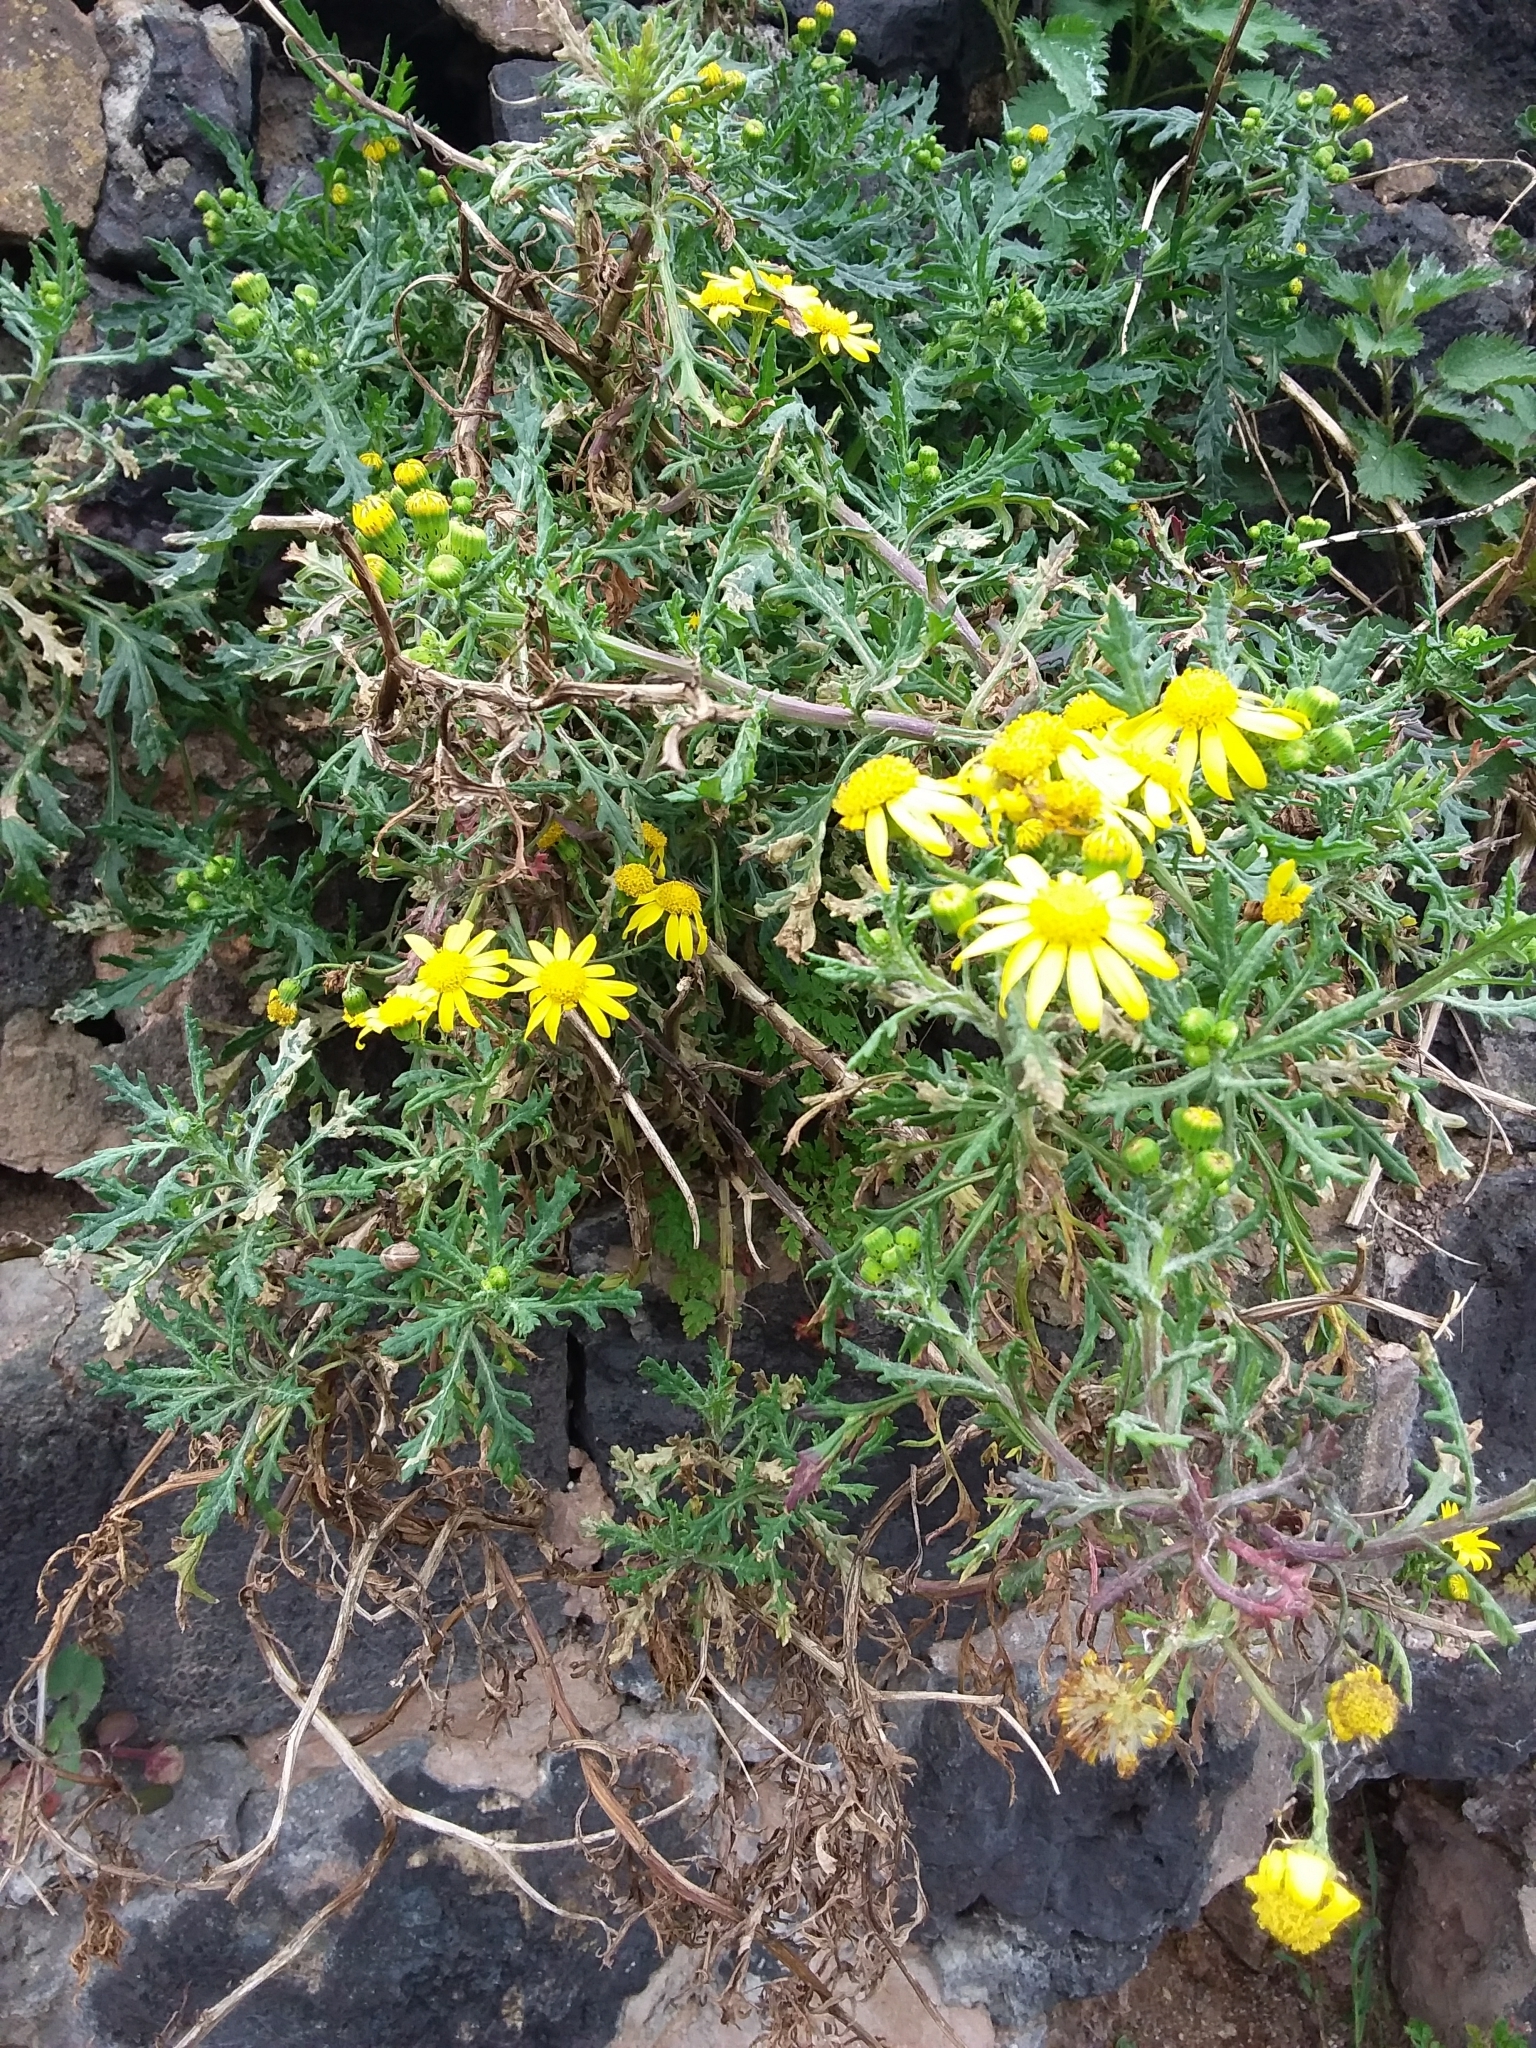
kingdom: Plantae
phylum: Tracheophyta
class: Magnoliopsida
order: Asterales
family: Asteraceae
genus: Senecio
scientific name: Senecio squalidus
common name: Oxford ragwort
